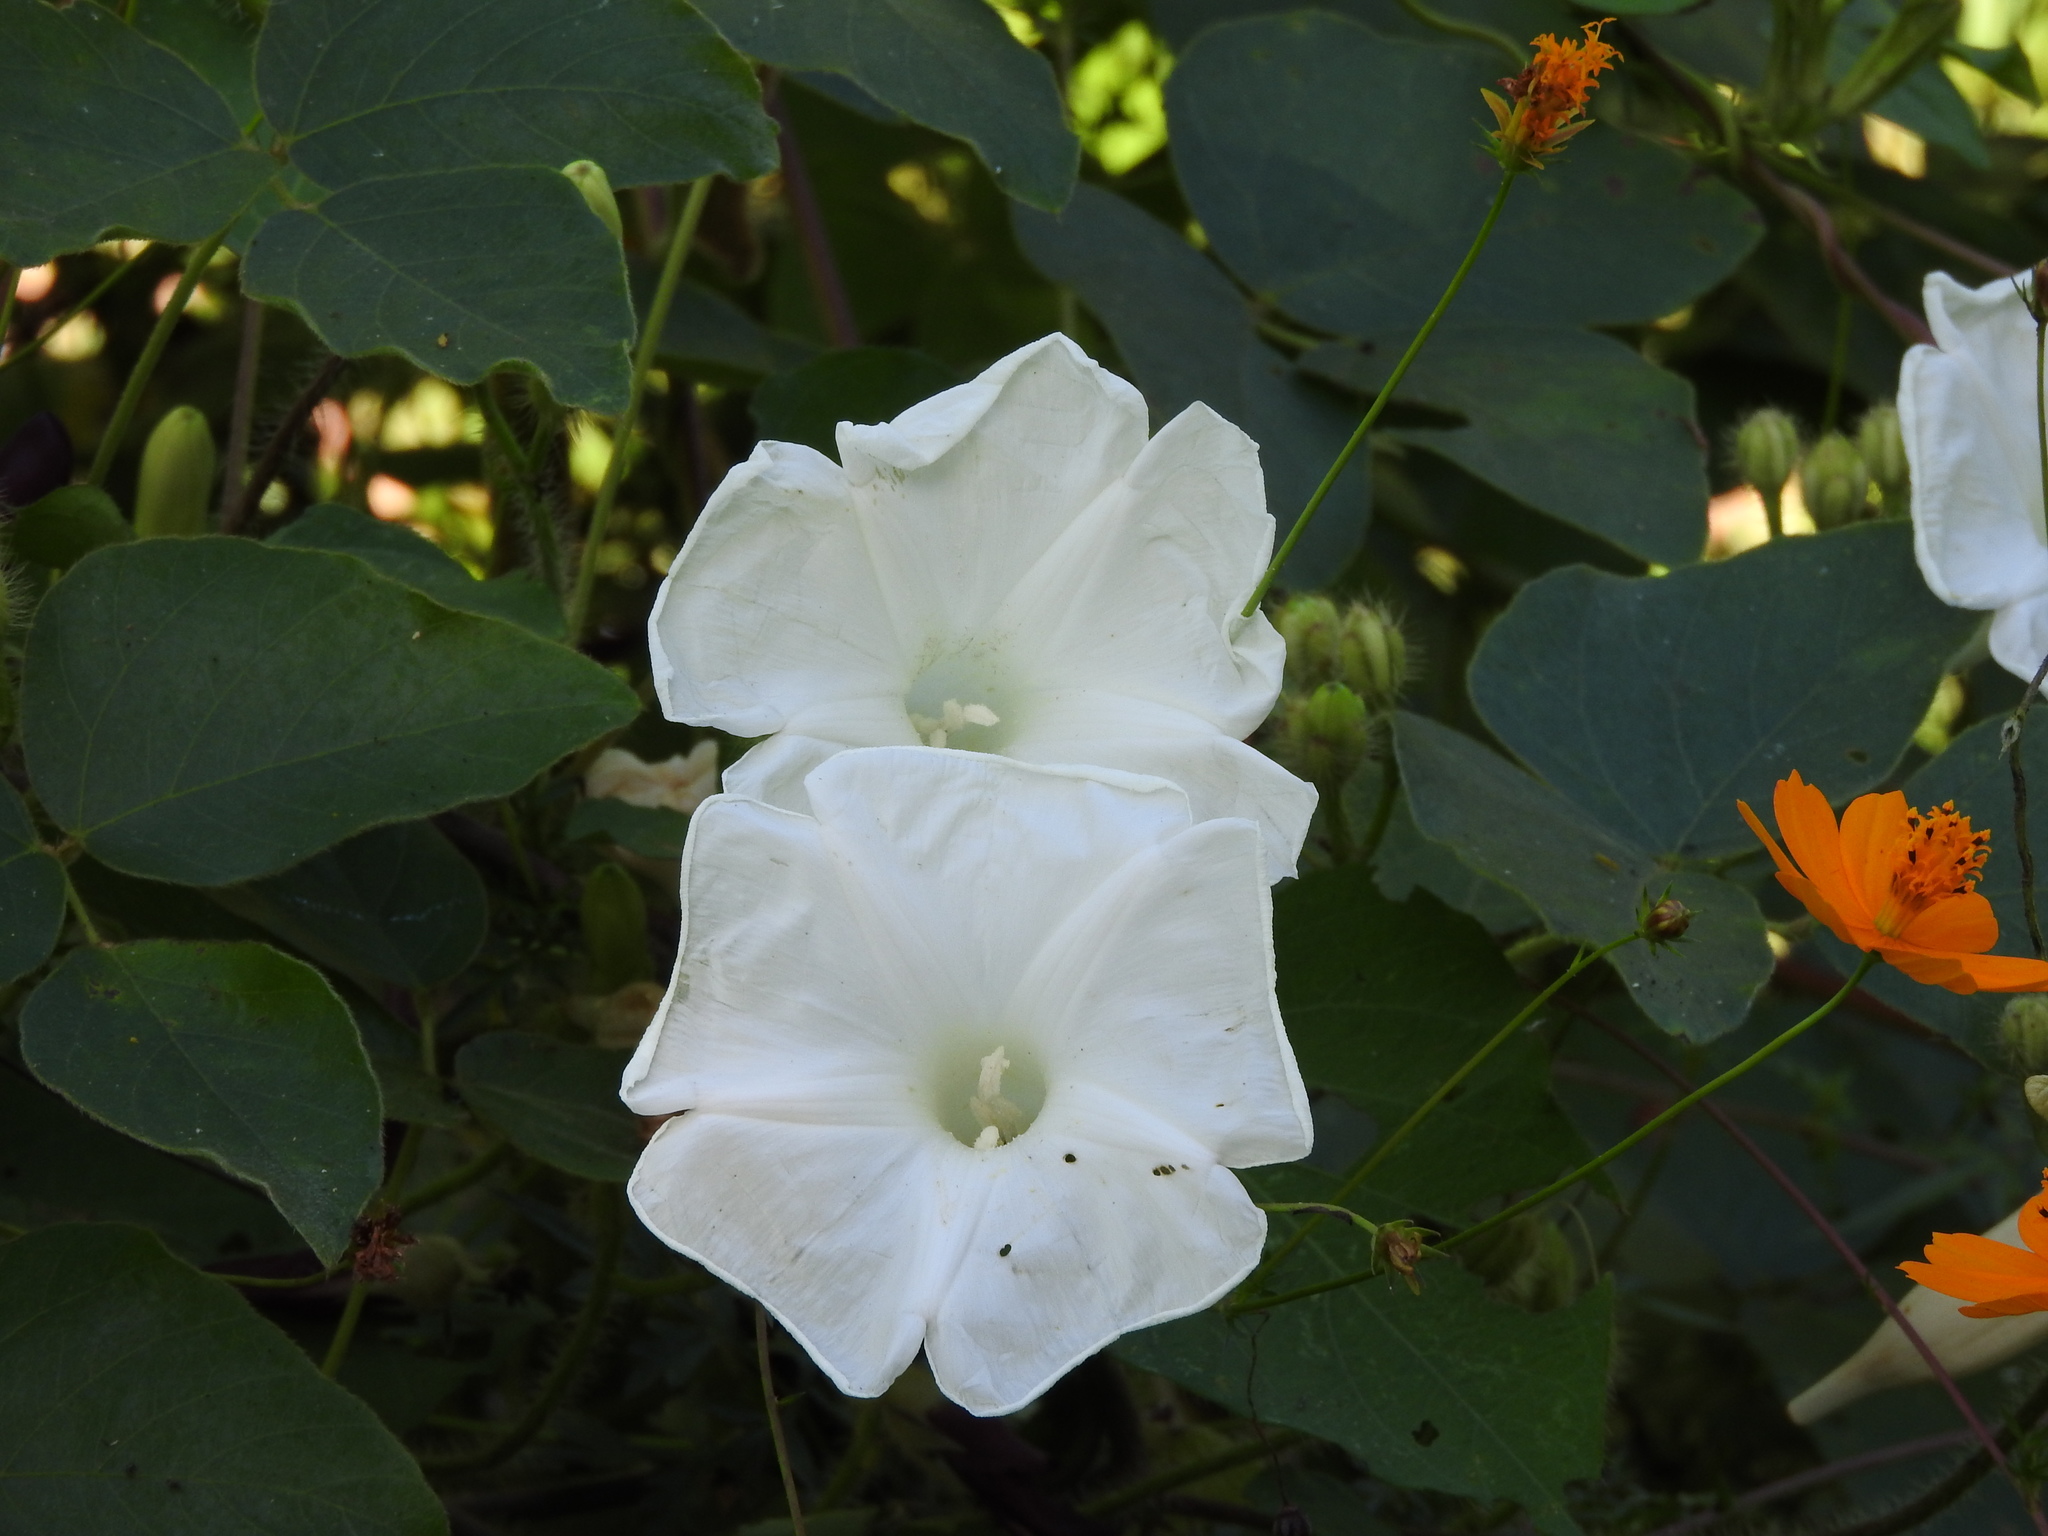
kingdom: Plantae
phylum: Tracheophyta
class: Magnoliopsida
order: Solanales
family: Convolvulaceae
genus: Ipomoea
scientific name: Ipomoea suaveolens
